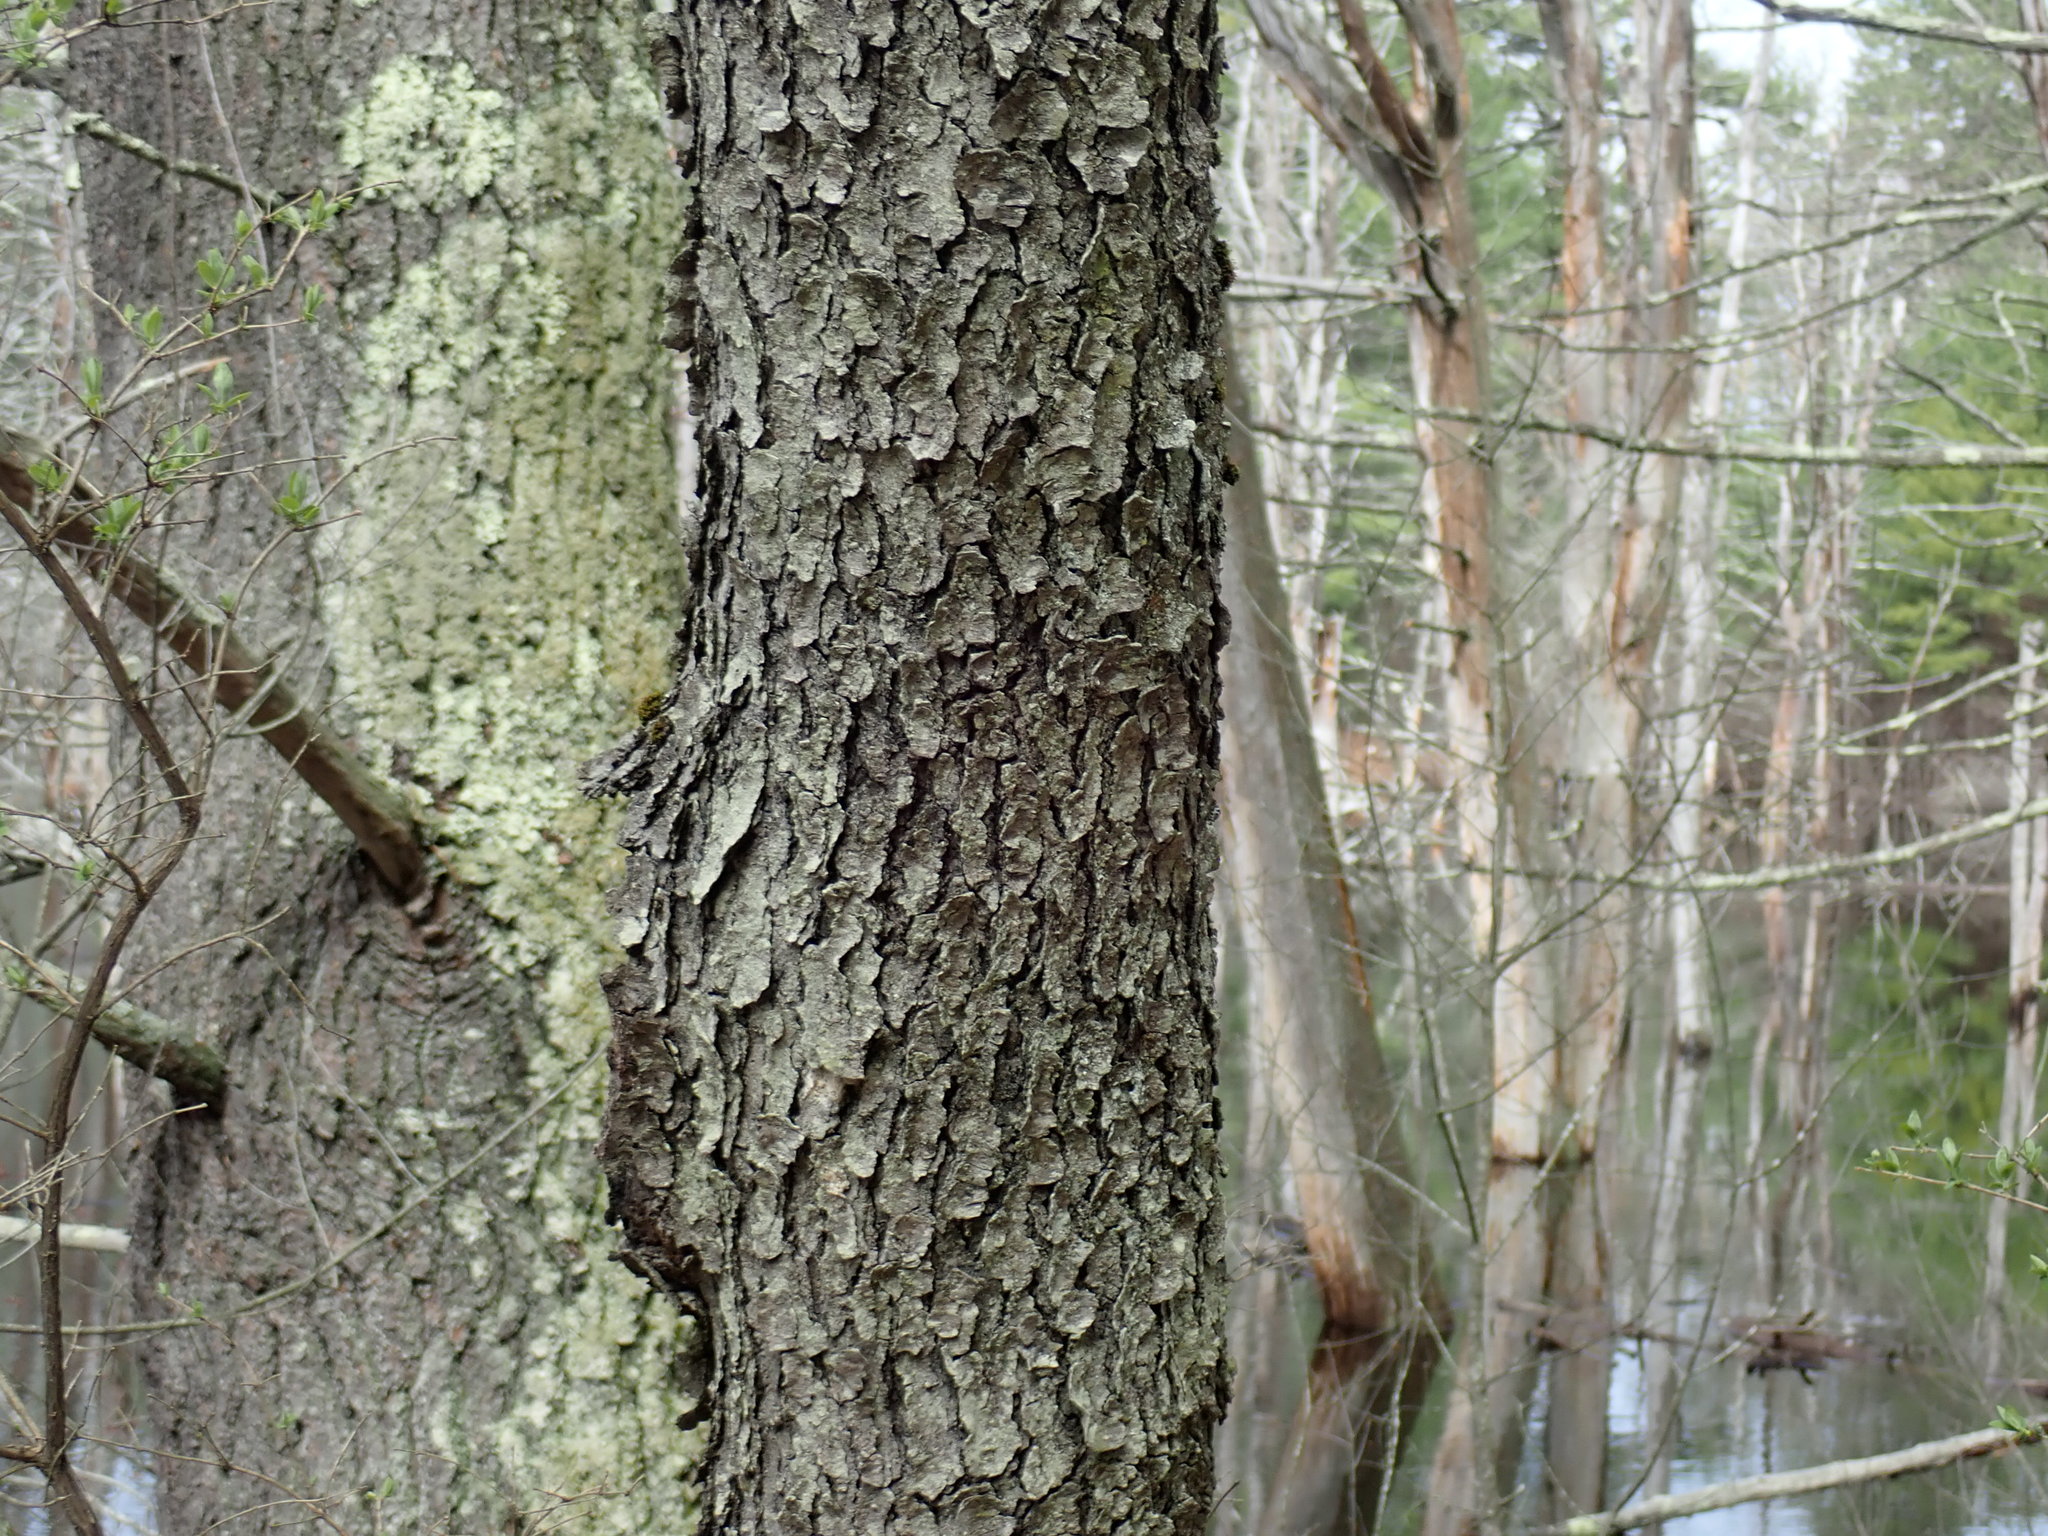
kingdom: Plantae
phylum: Tracheophyta
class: Magnoliopsida
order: Rosales
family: Rosaceae
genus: Prunus
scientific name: Prunus serotina
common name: Black cherry
